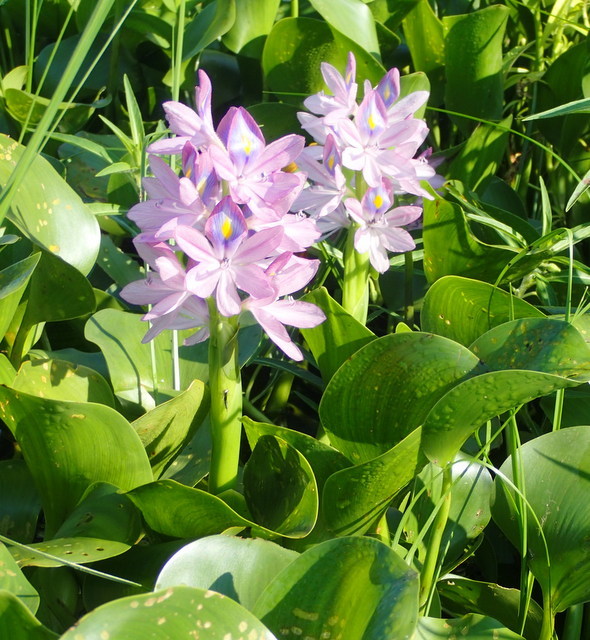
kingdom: Plantae
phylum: Tracheophyta
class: Liliopsida
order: Commelinales
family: Pontederiaceae
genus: Pontederia
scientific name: Pontederia crassipes
